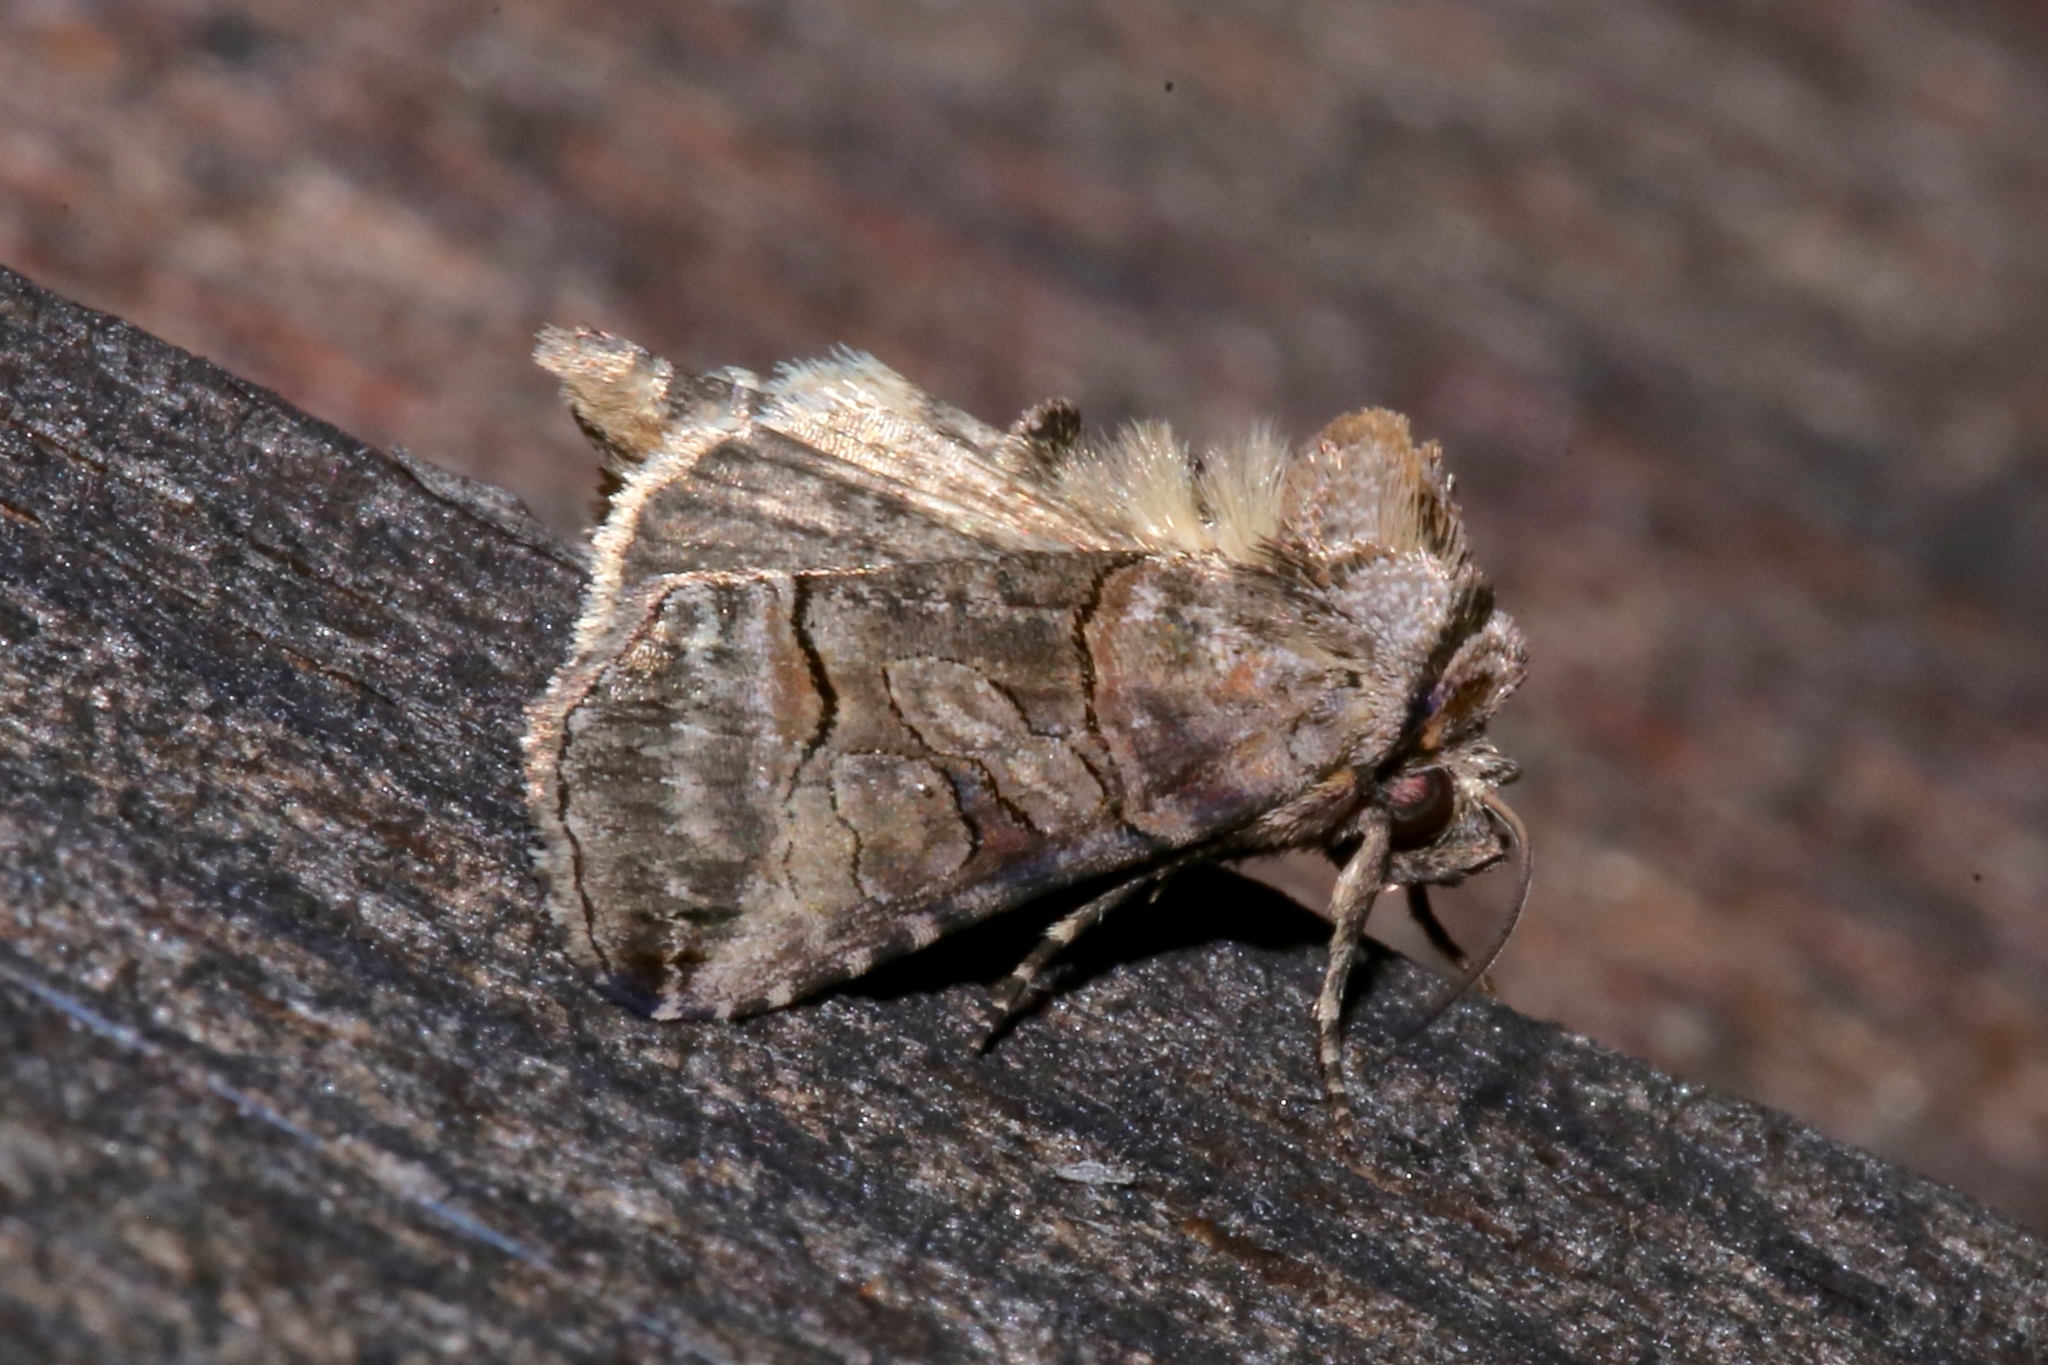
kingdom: Animalia
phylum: Arthropoda
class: Insecta
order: Lepidoptera
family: Noctuidae
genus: Abrostola
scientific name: Abrostola urentis
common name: Spectacled nettle moth
